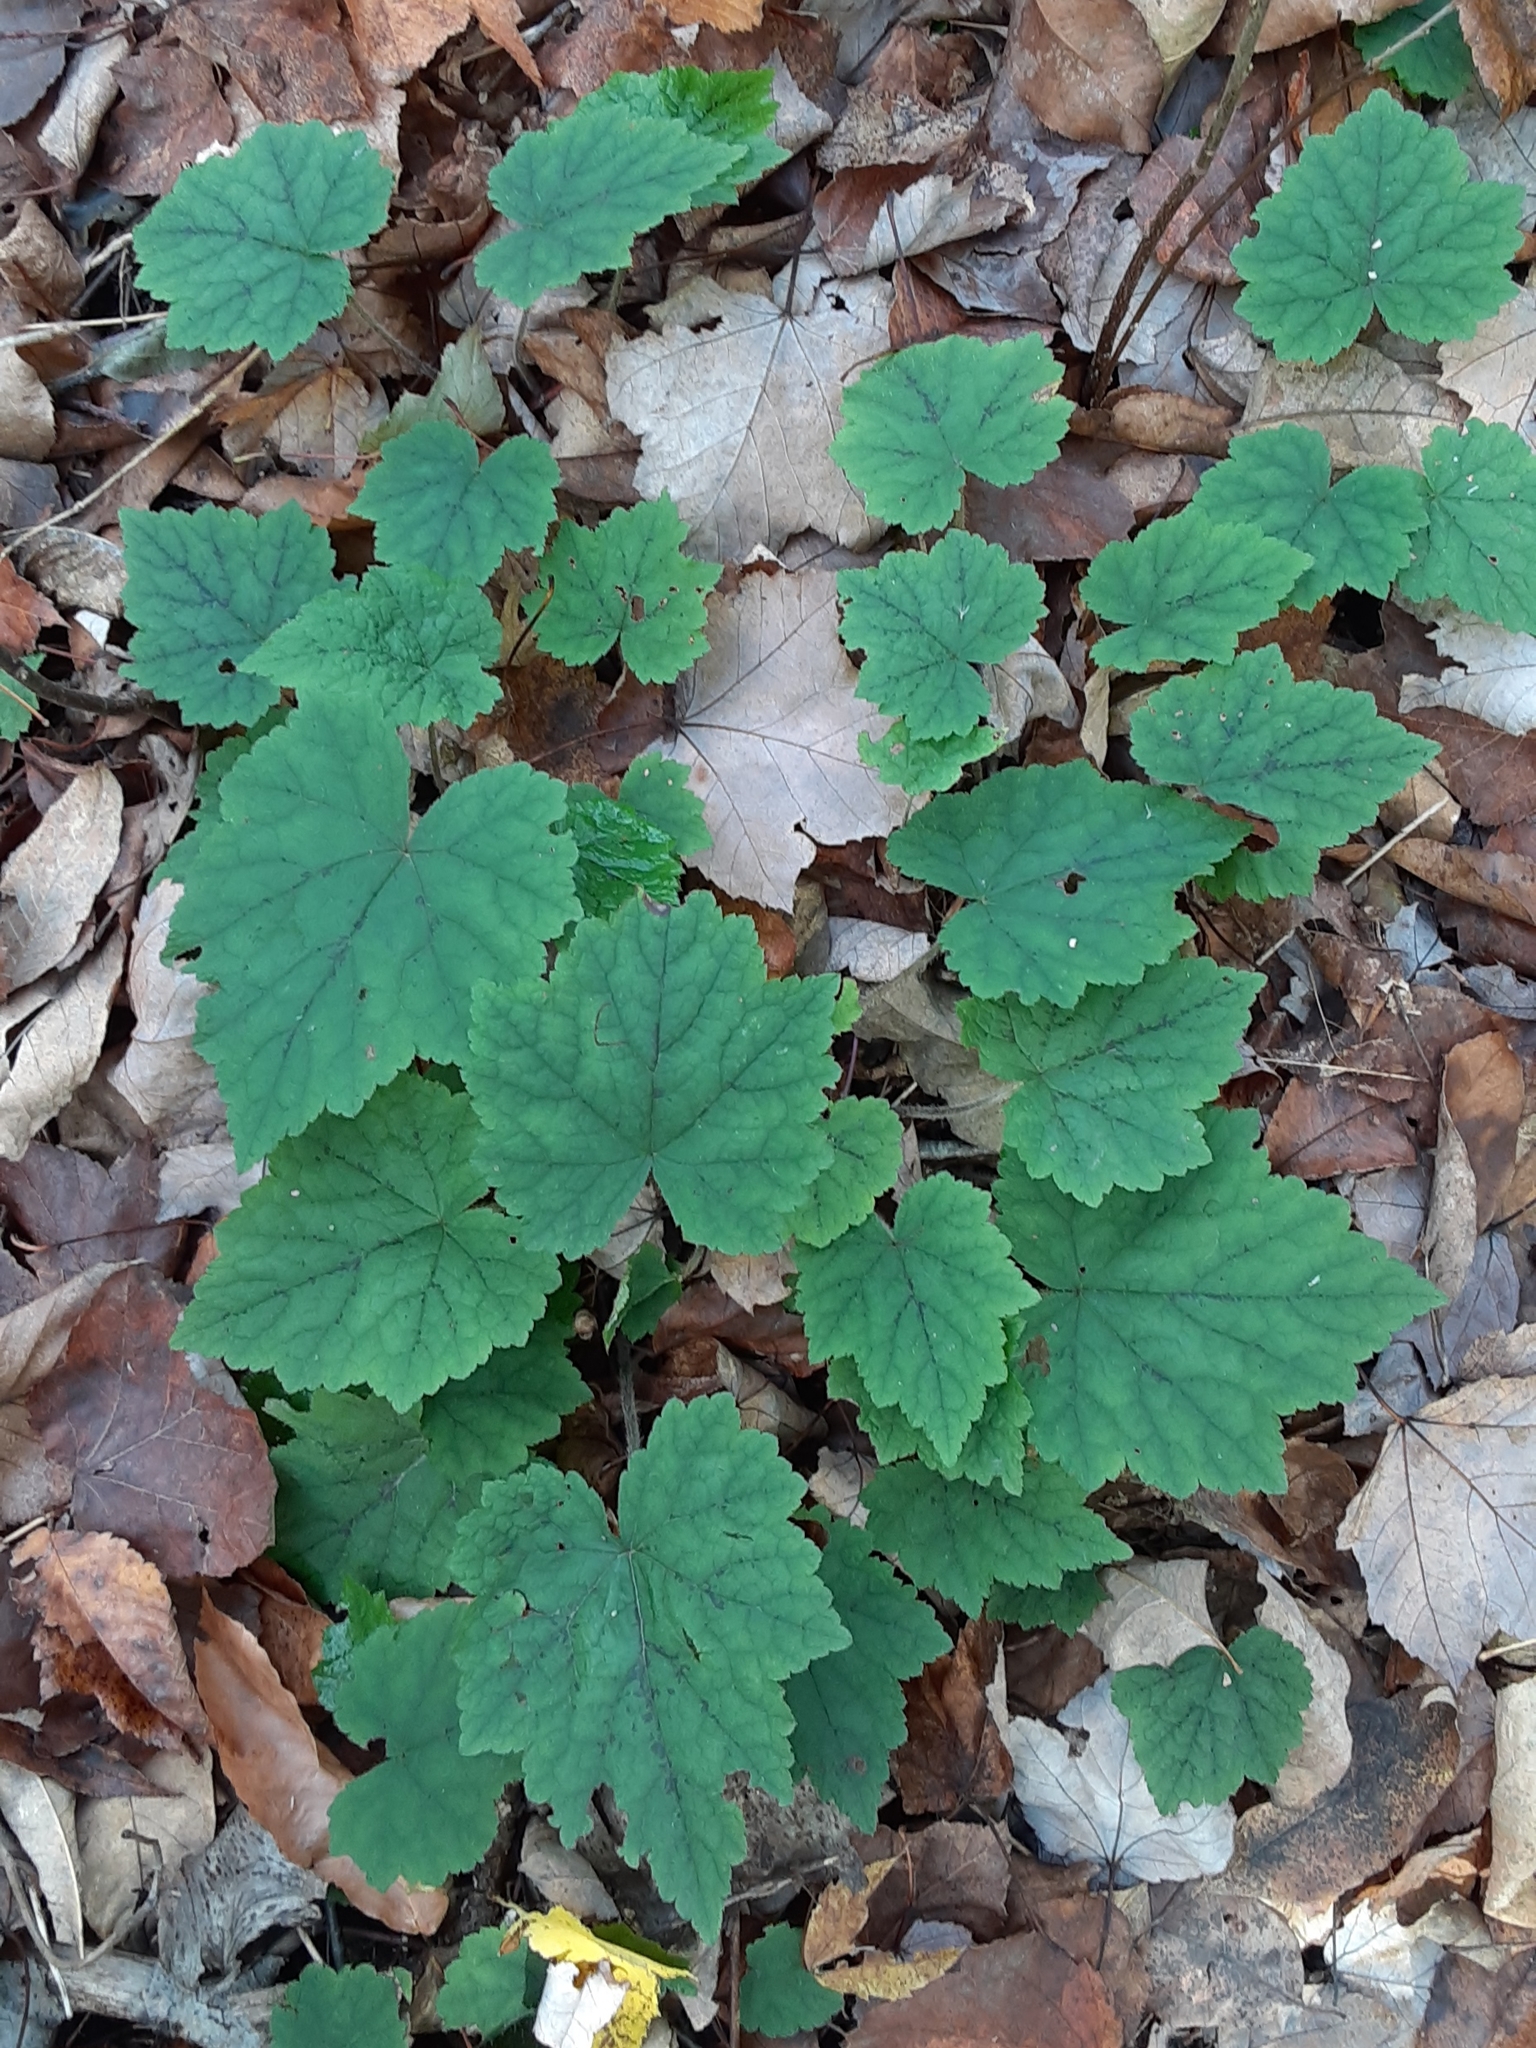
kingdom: Plantae
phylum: Tracheophyta
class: Magnoliopsida
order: Saxifragales
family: Saxifragaceae
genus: Tiarella
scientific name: Tiarella stolonifera
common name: Stoloniferous foamflower
